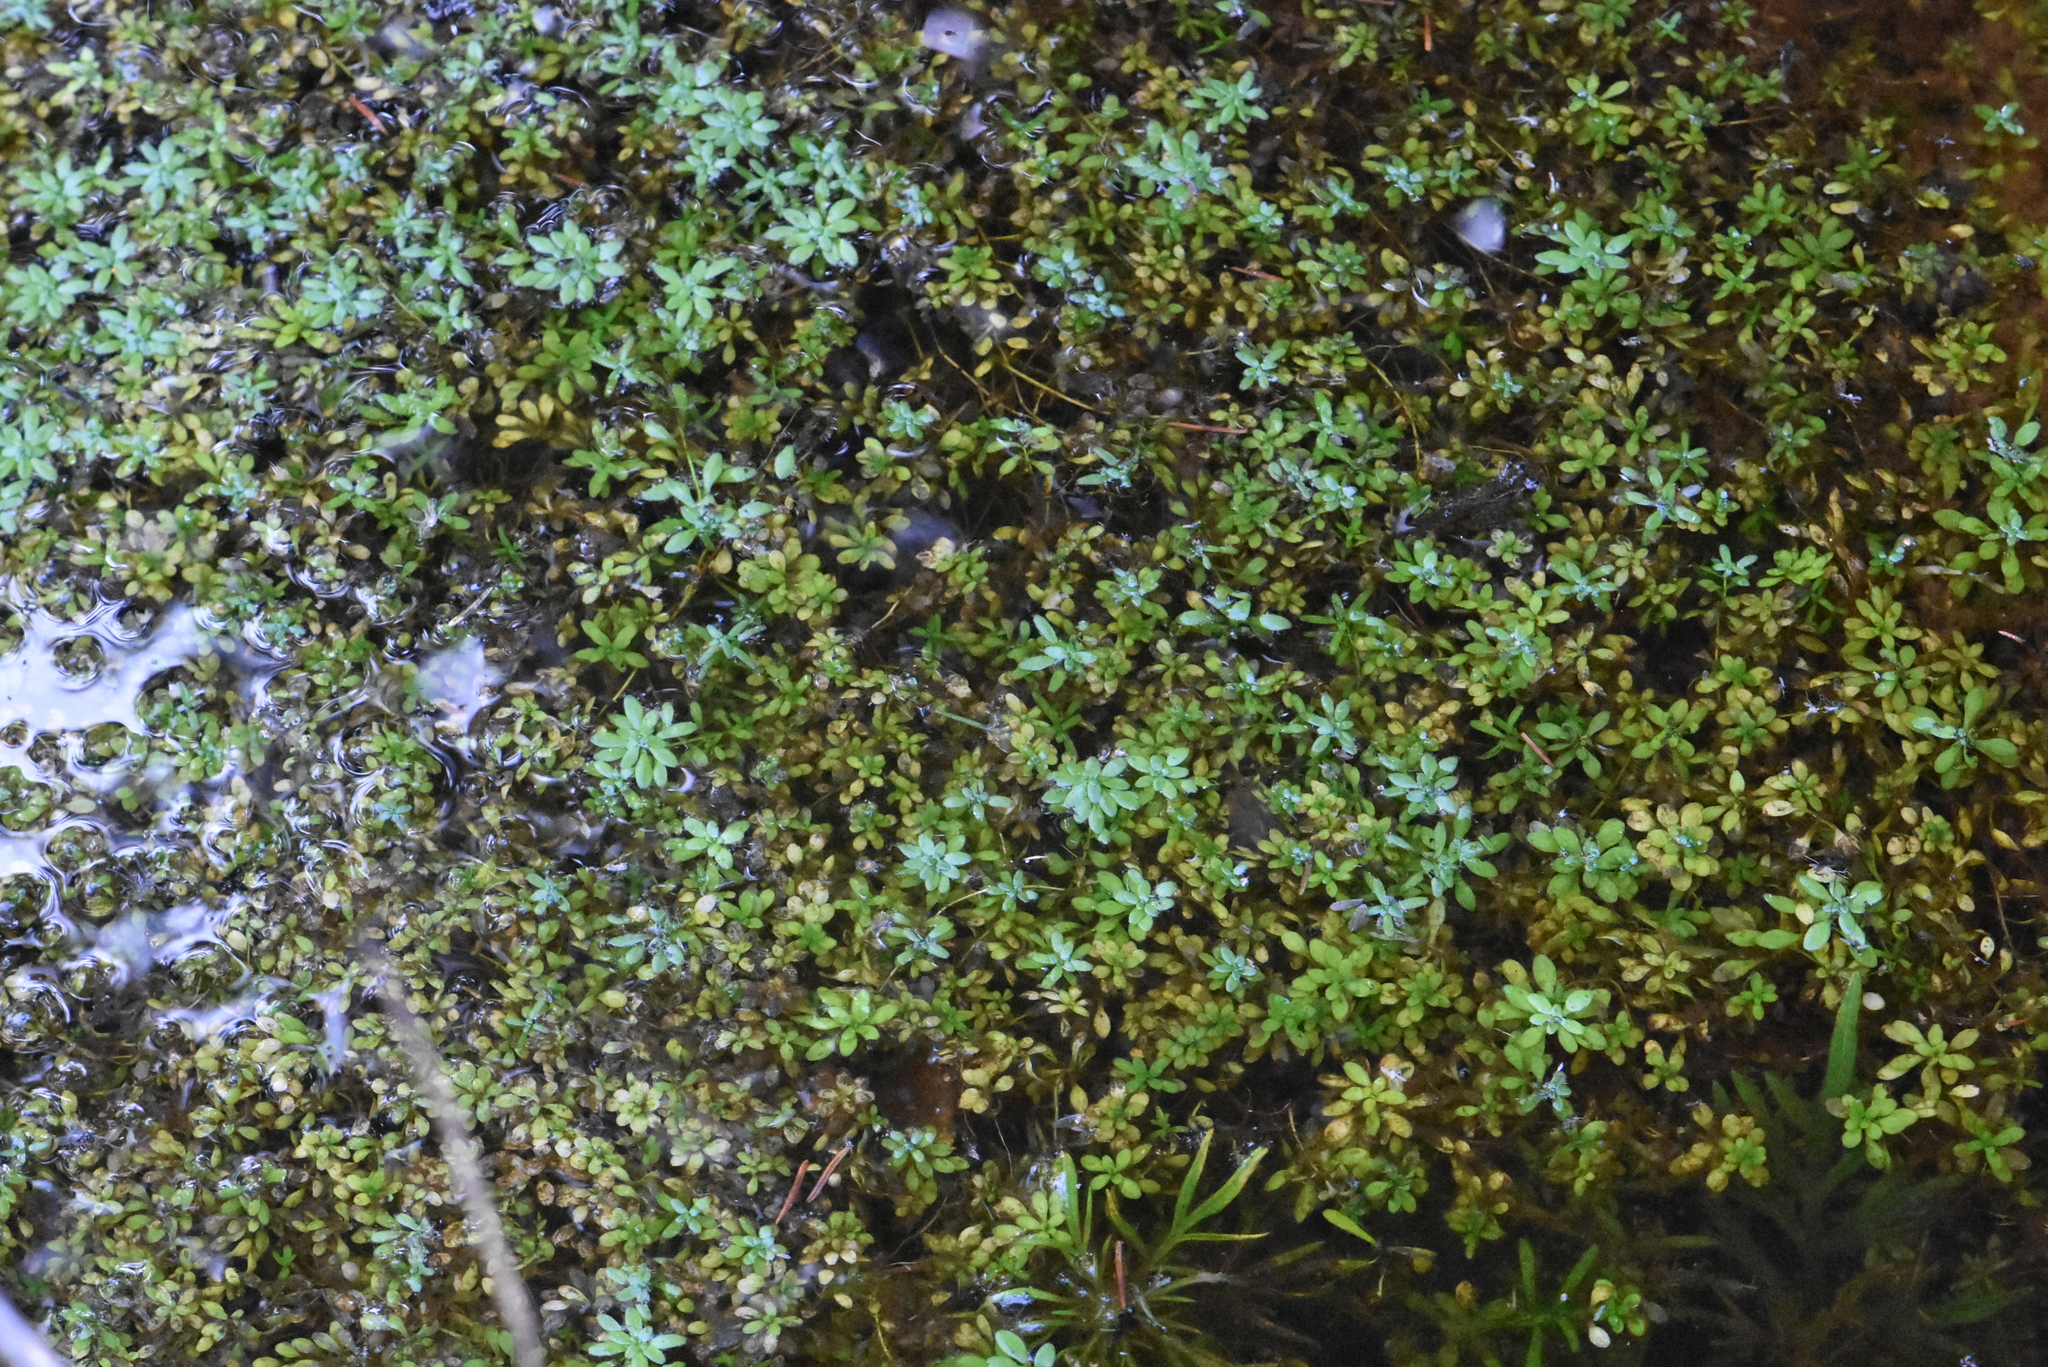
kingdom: Plantae
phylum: Tracheophyta
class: Magnoliopsida
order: Lamiales
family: Plantaginaceae
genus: Callitriche
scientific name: Callitriche
